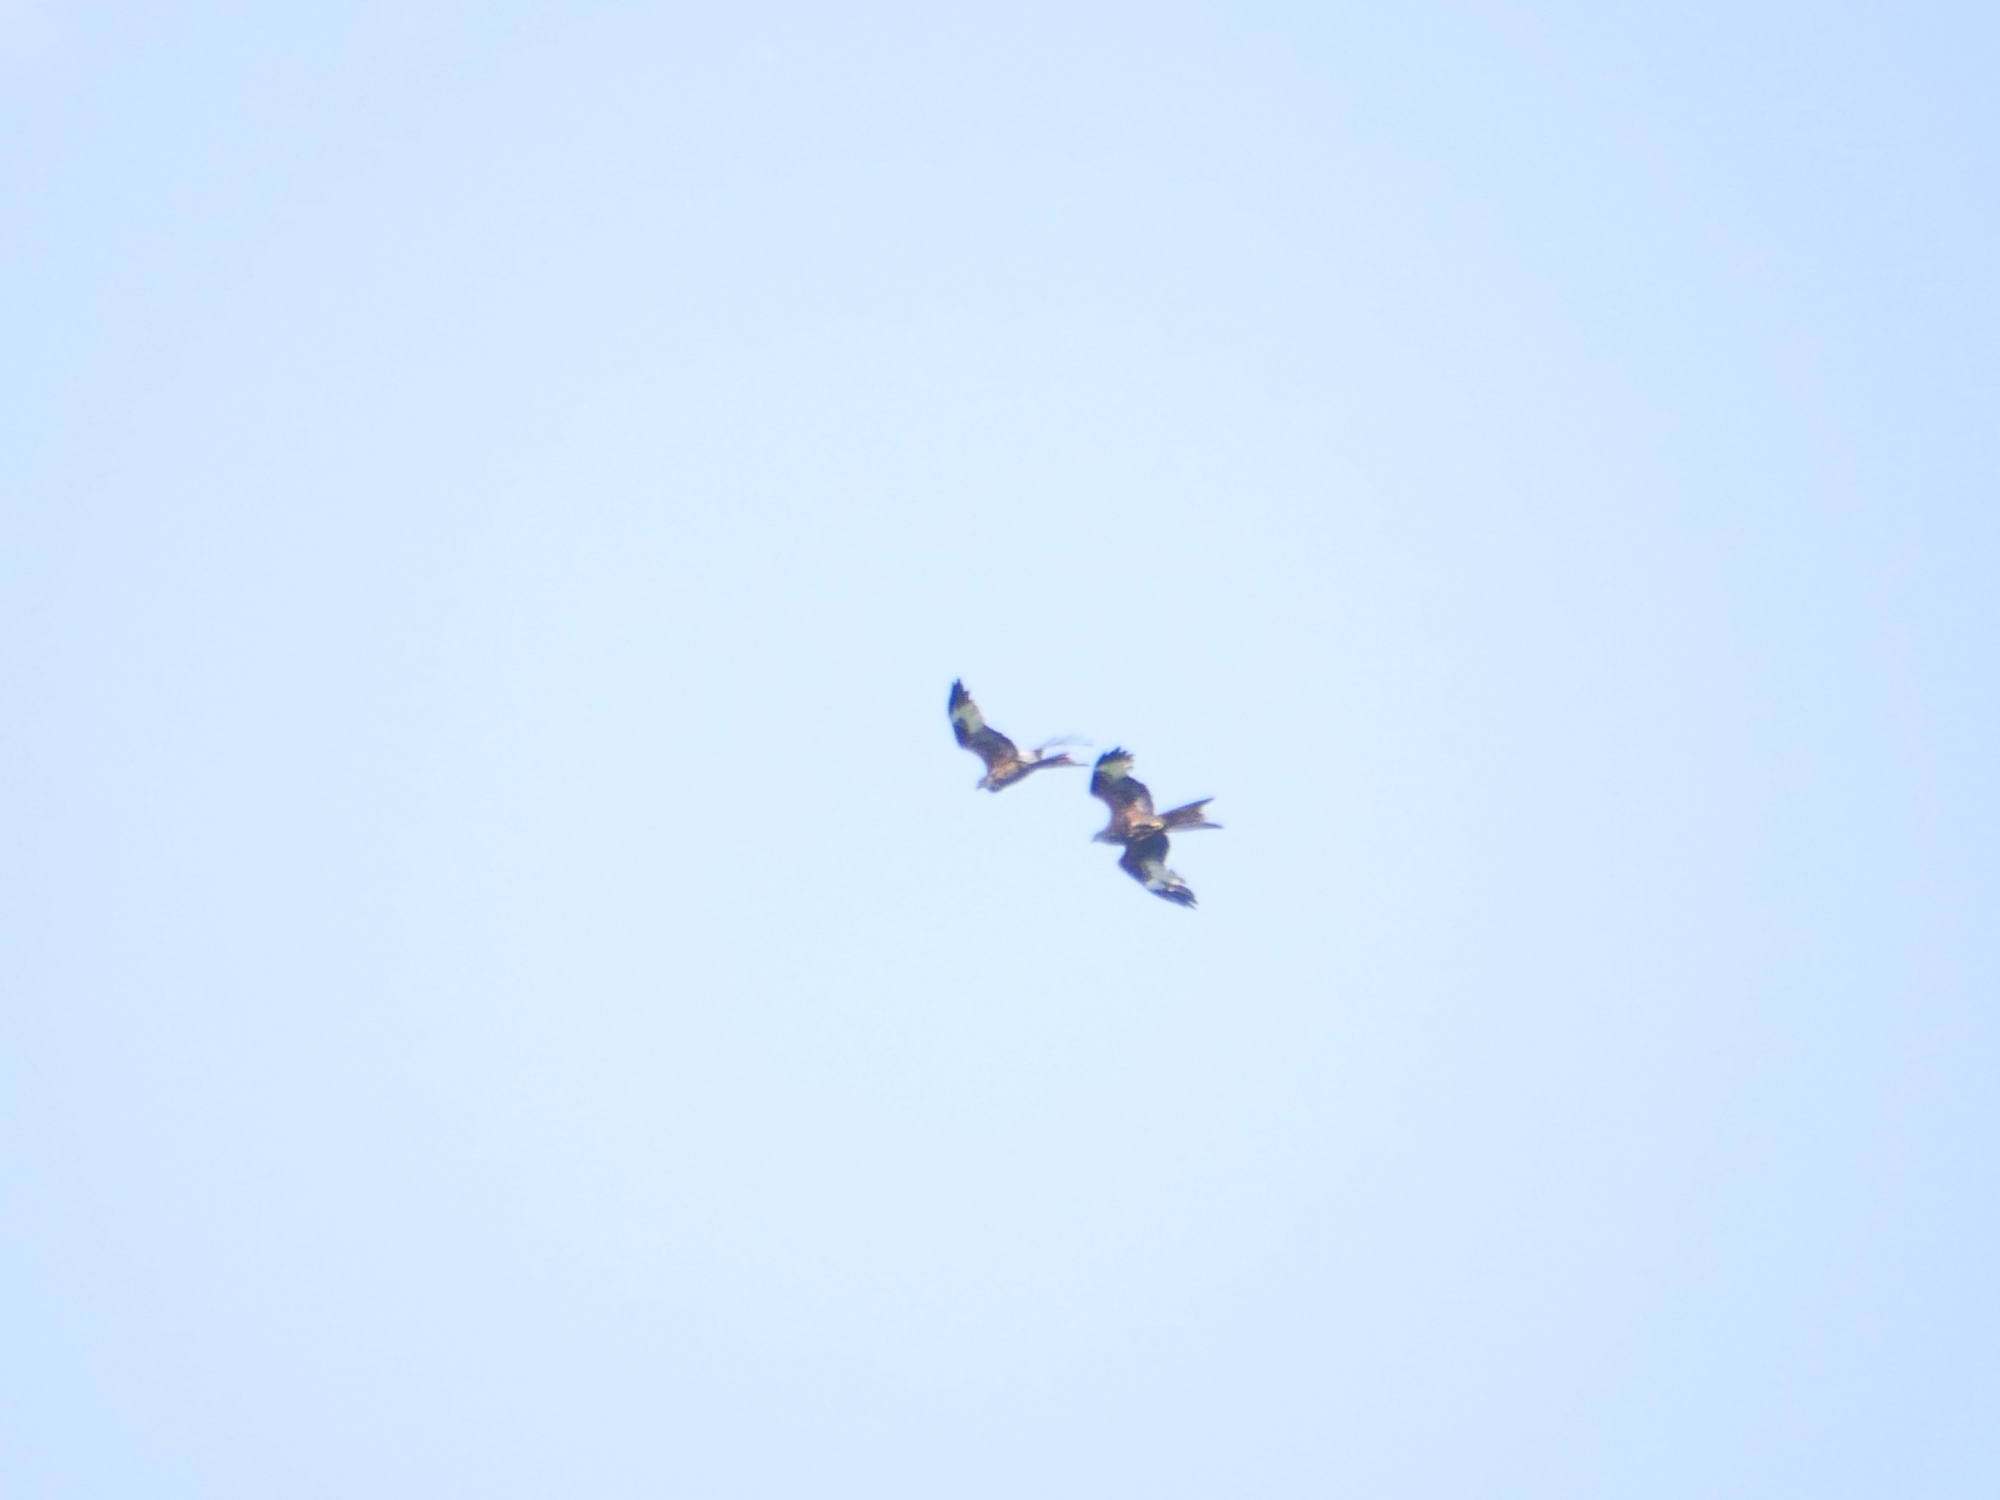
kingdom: Animalia
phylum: Chordata
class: Aves
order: Accipitriformes
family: Accipitridae
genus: Milvus
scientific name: Milvus milvus
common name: Red kite
